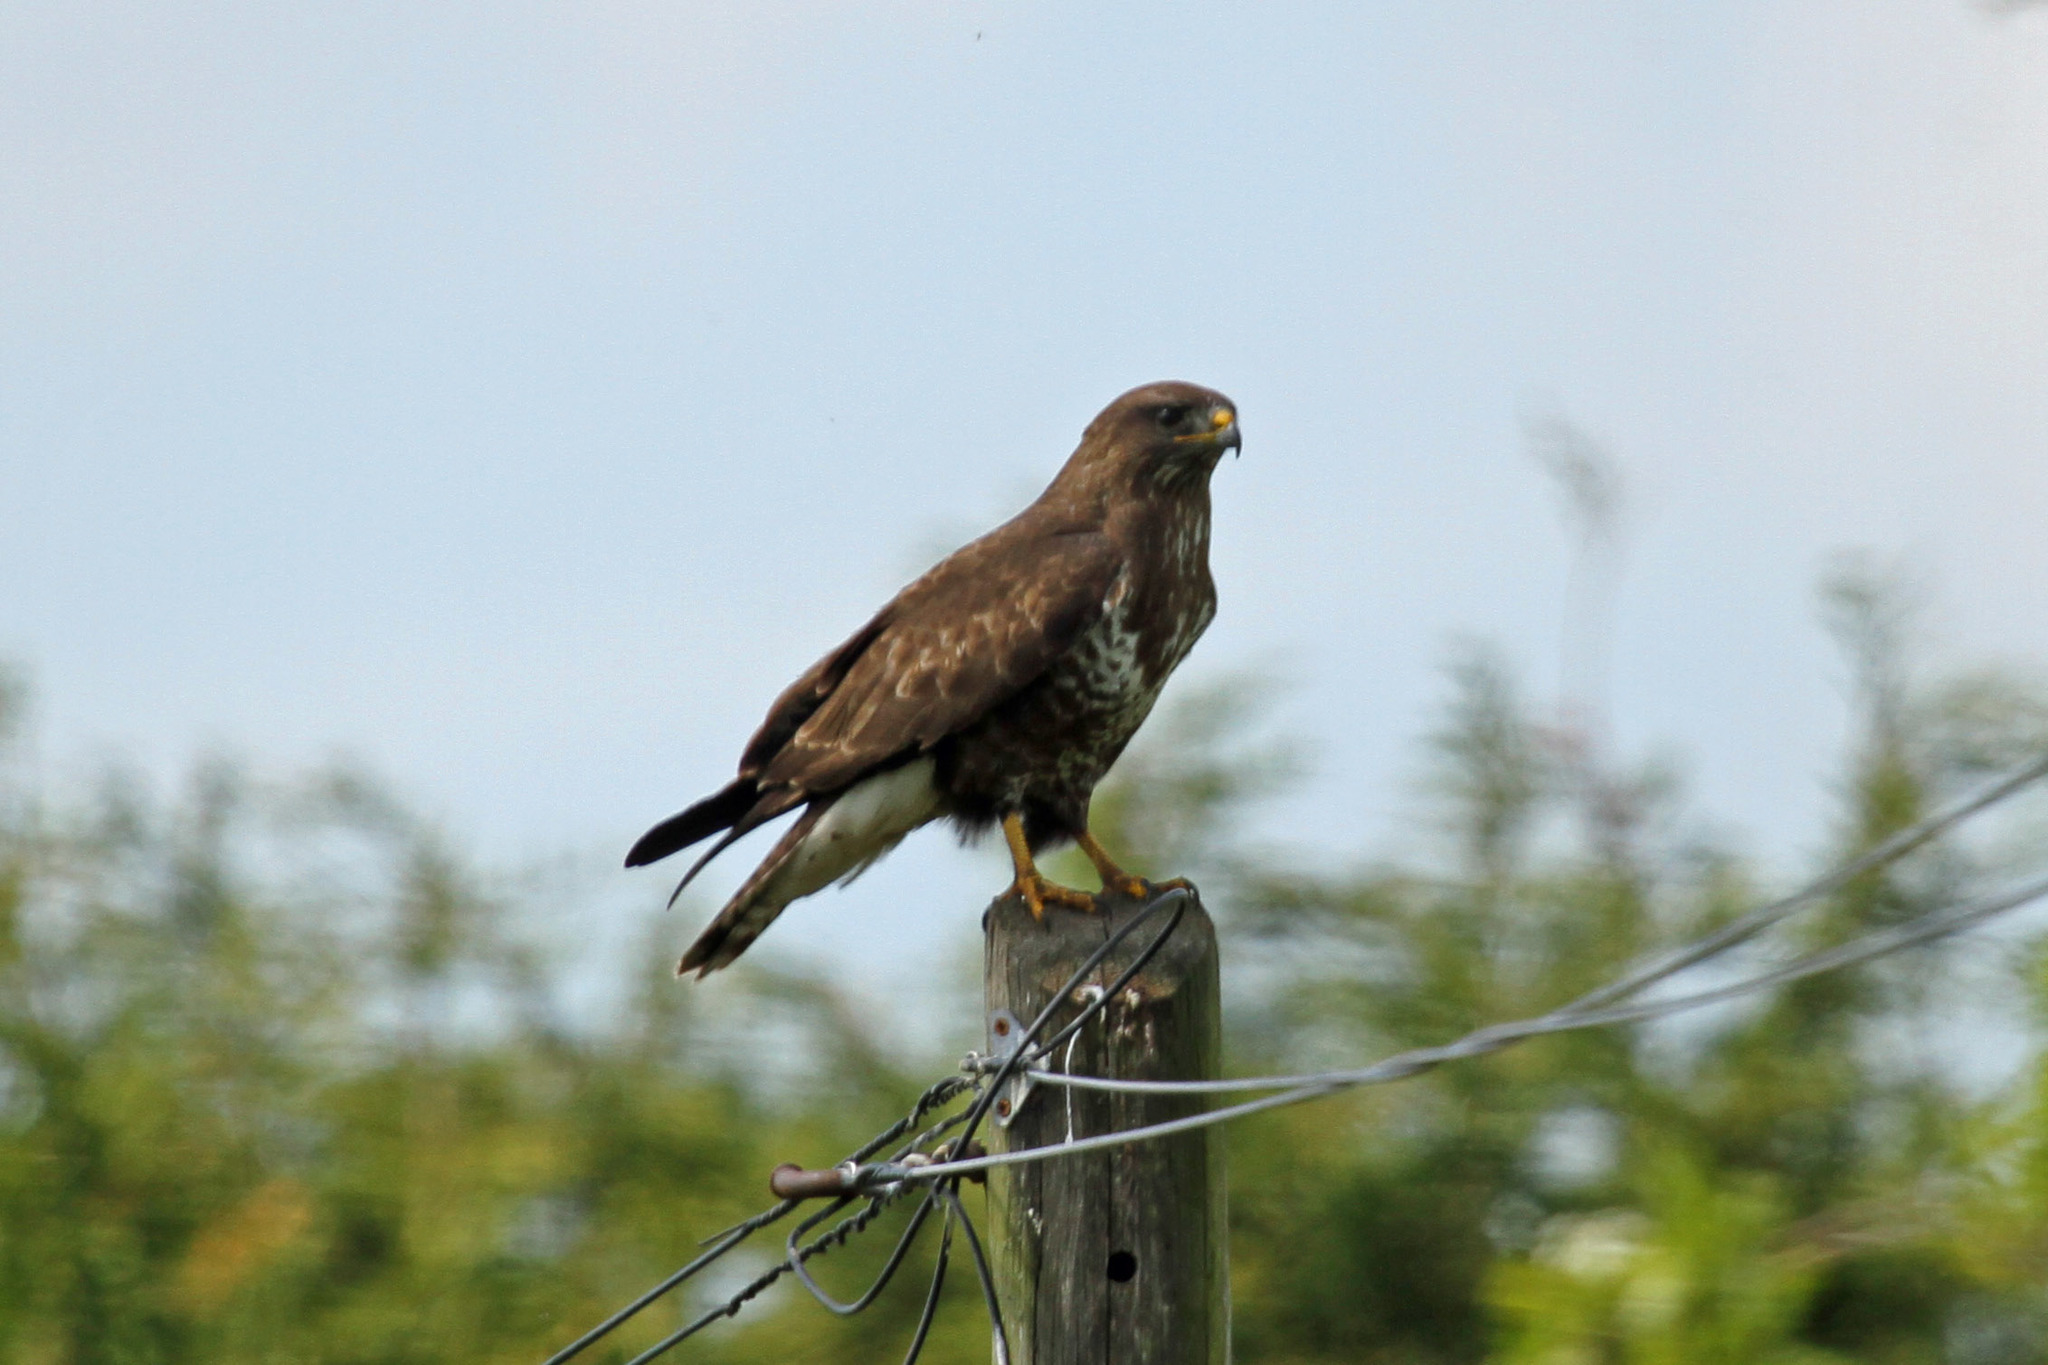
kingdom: Animalia
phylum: Chordata
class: Aves
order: Accipitriformes
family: Accipitridae
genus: Buteo
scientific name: Buteo buteo
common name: Common buzzard
